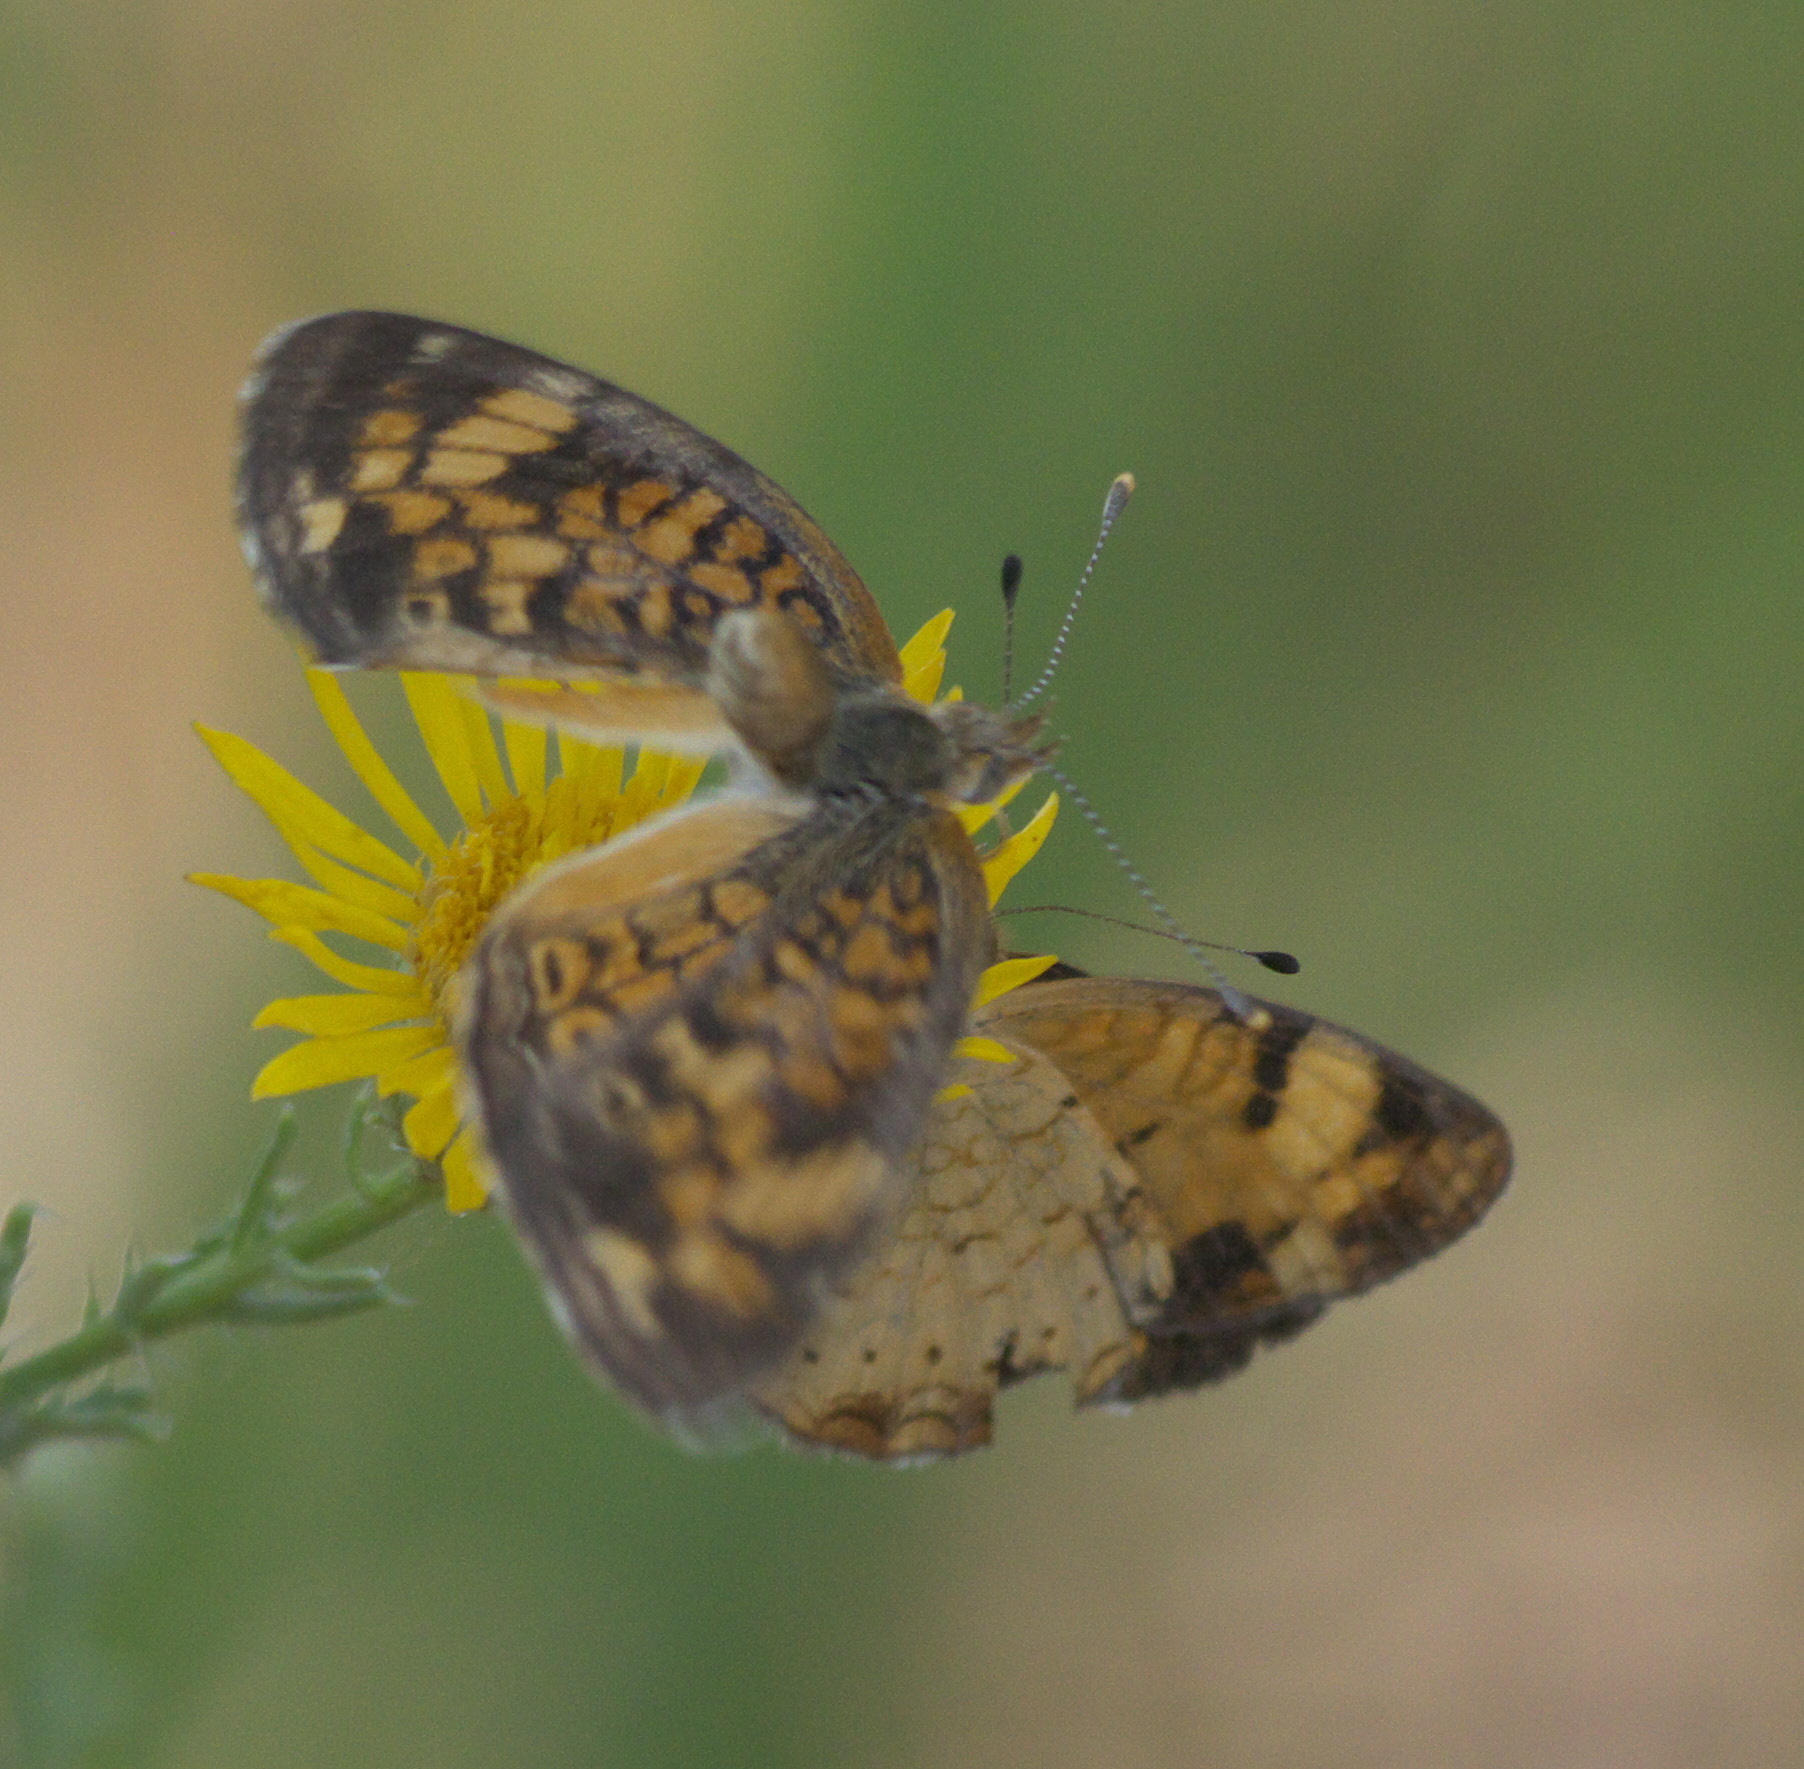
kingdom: Animalia
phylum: Arthropoda
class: Insecta
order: Lepidoptera
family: Nymphalidae
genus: Phyciodes
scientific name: Phyciodes tharos
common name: Pearl crescent
